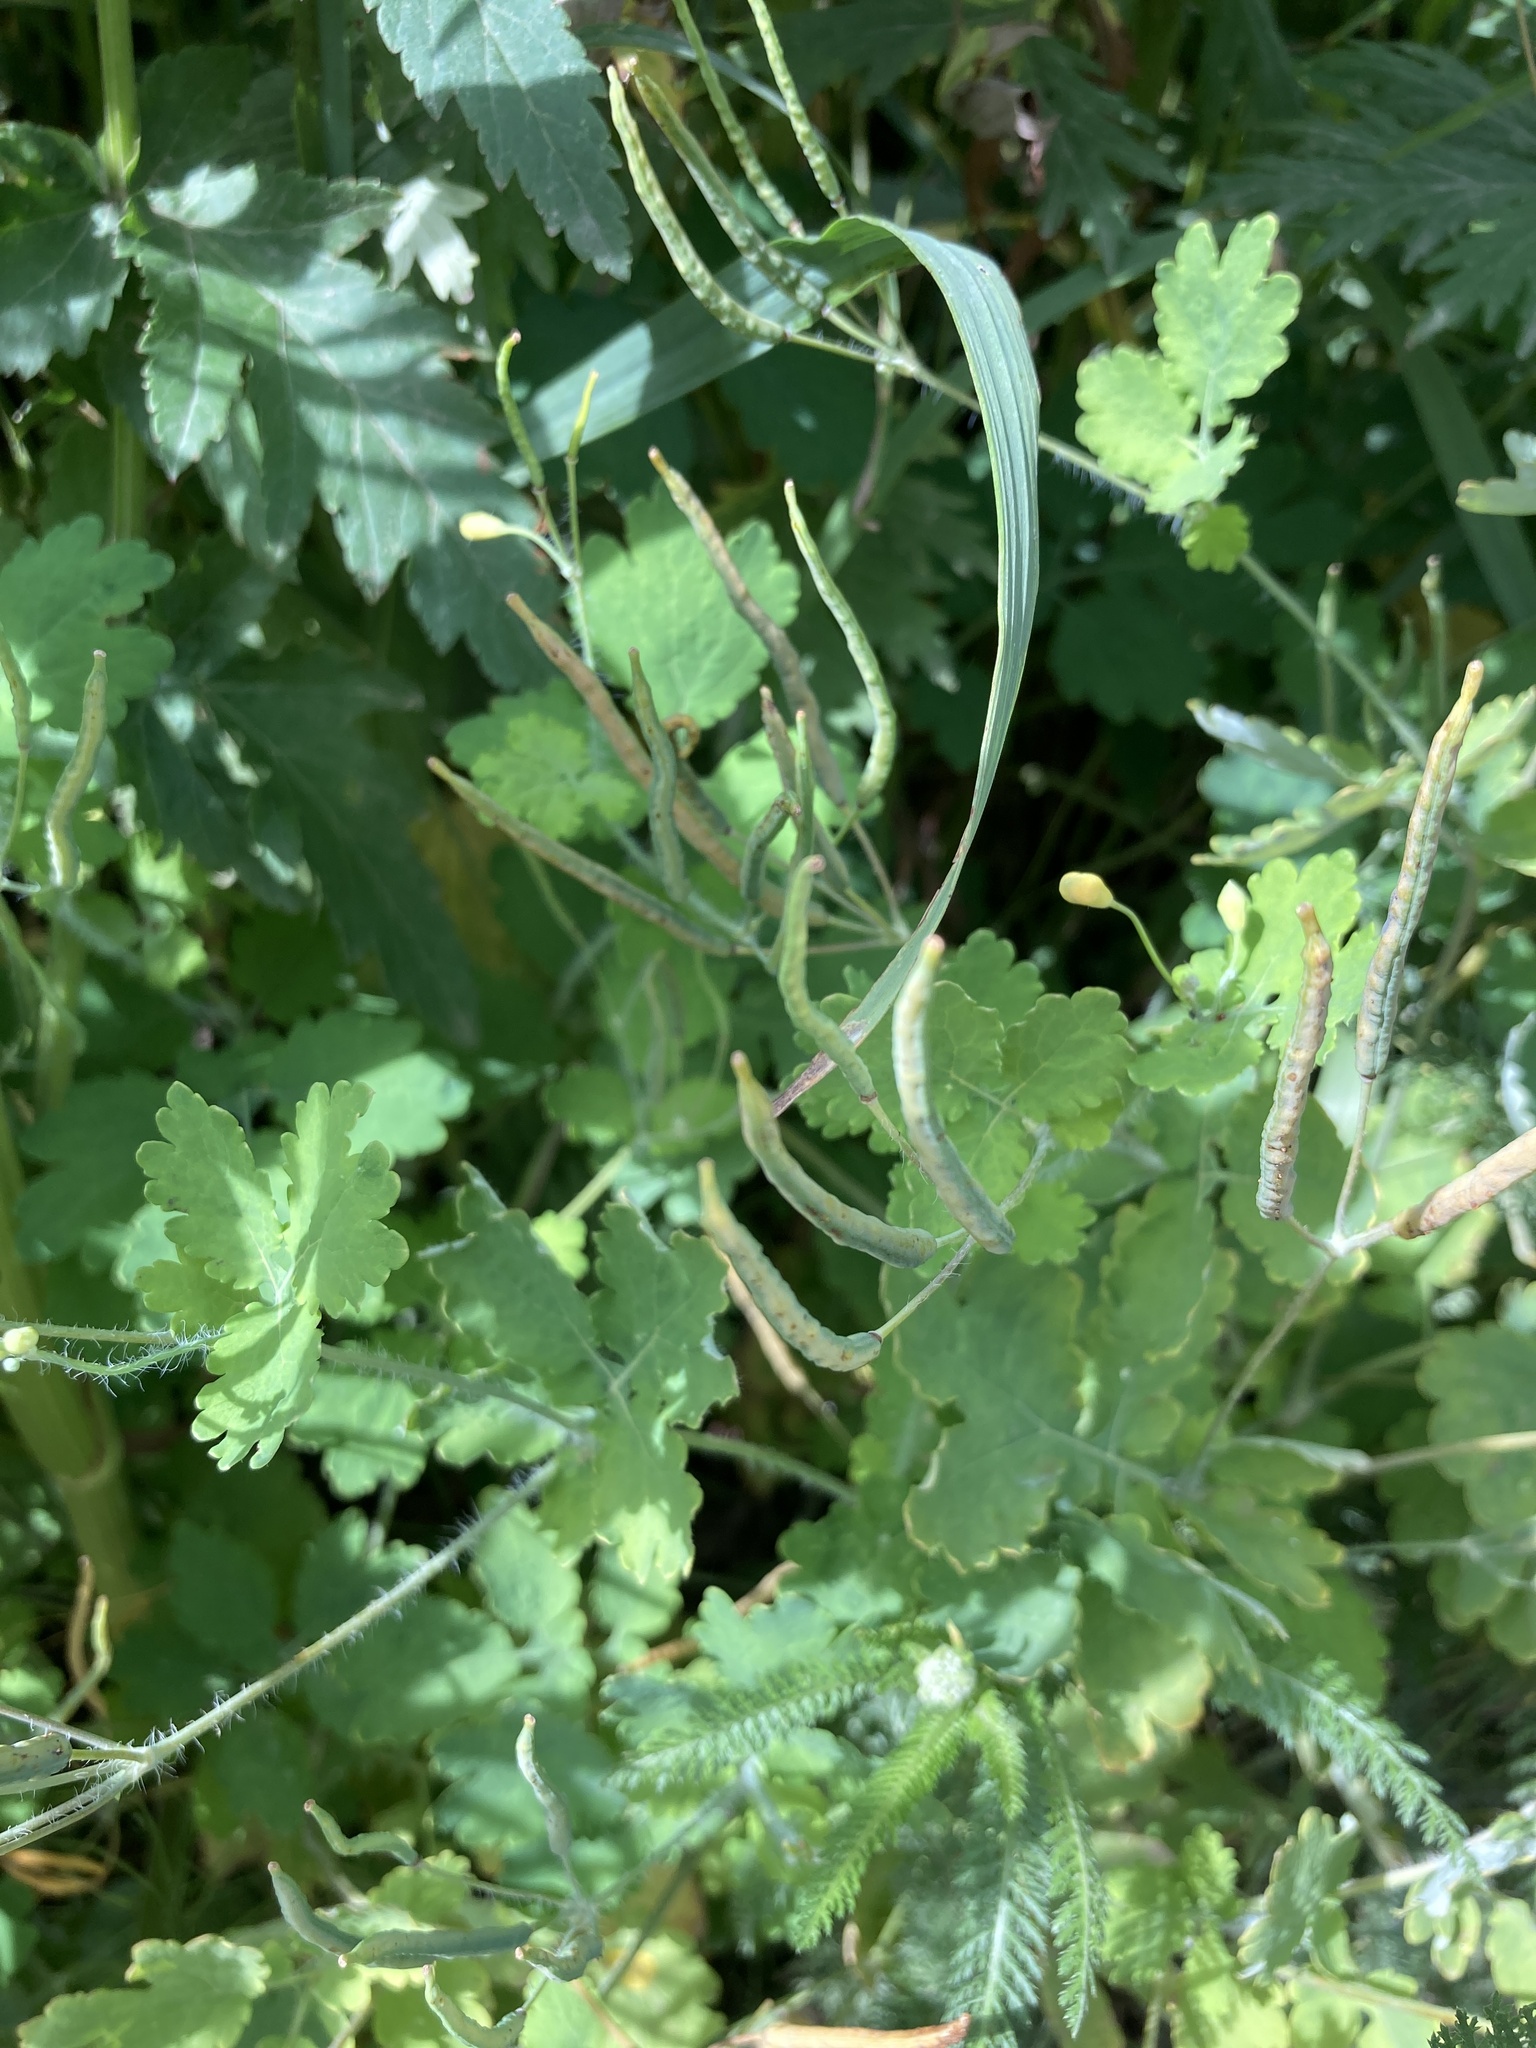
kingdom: Plantae
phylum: Tracheophyta
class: Magnoliopsida
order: Ranunculales
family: Papaveraceae
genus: Chelidonium
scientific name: Chelidonium majus
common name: Greater celandine
